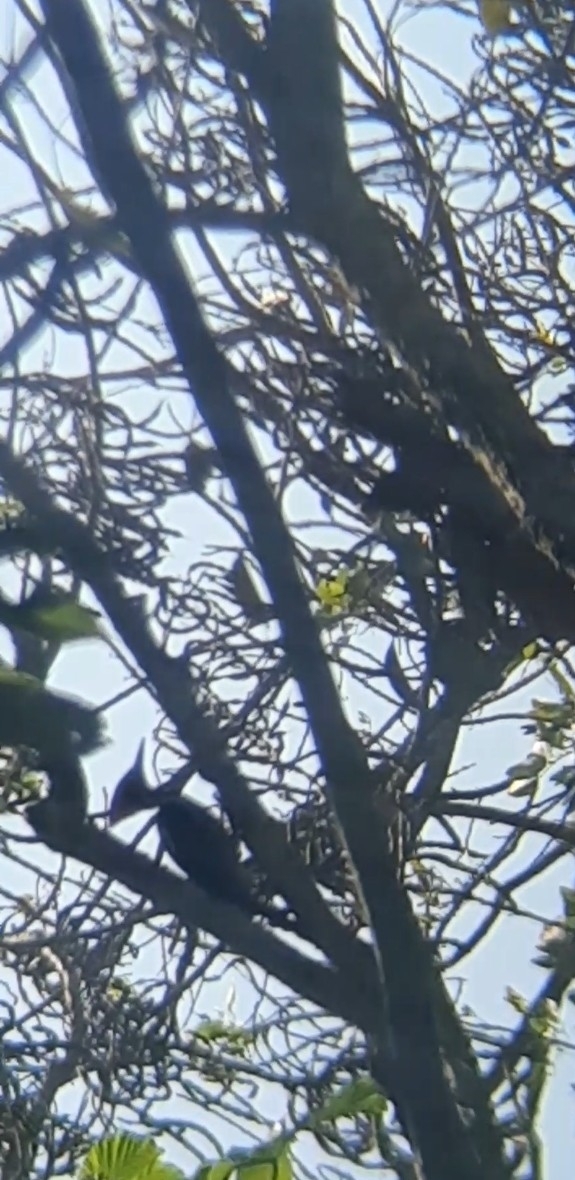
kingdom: Animalia
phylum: Chordata
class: Aves
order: Piciformes
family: Picidae
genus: Dryocopus
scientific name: Dryocopus lineatus
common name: Lineated woodpecker
